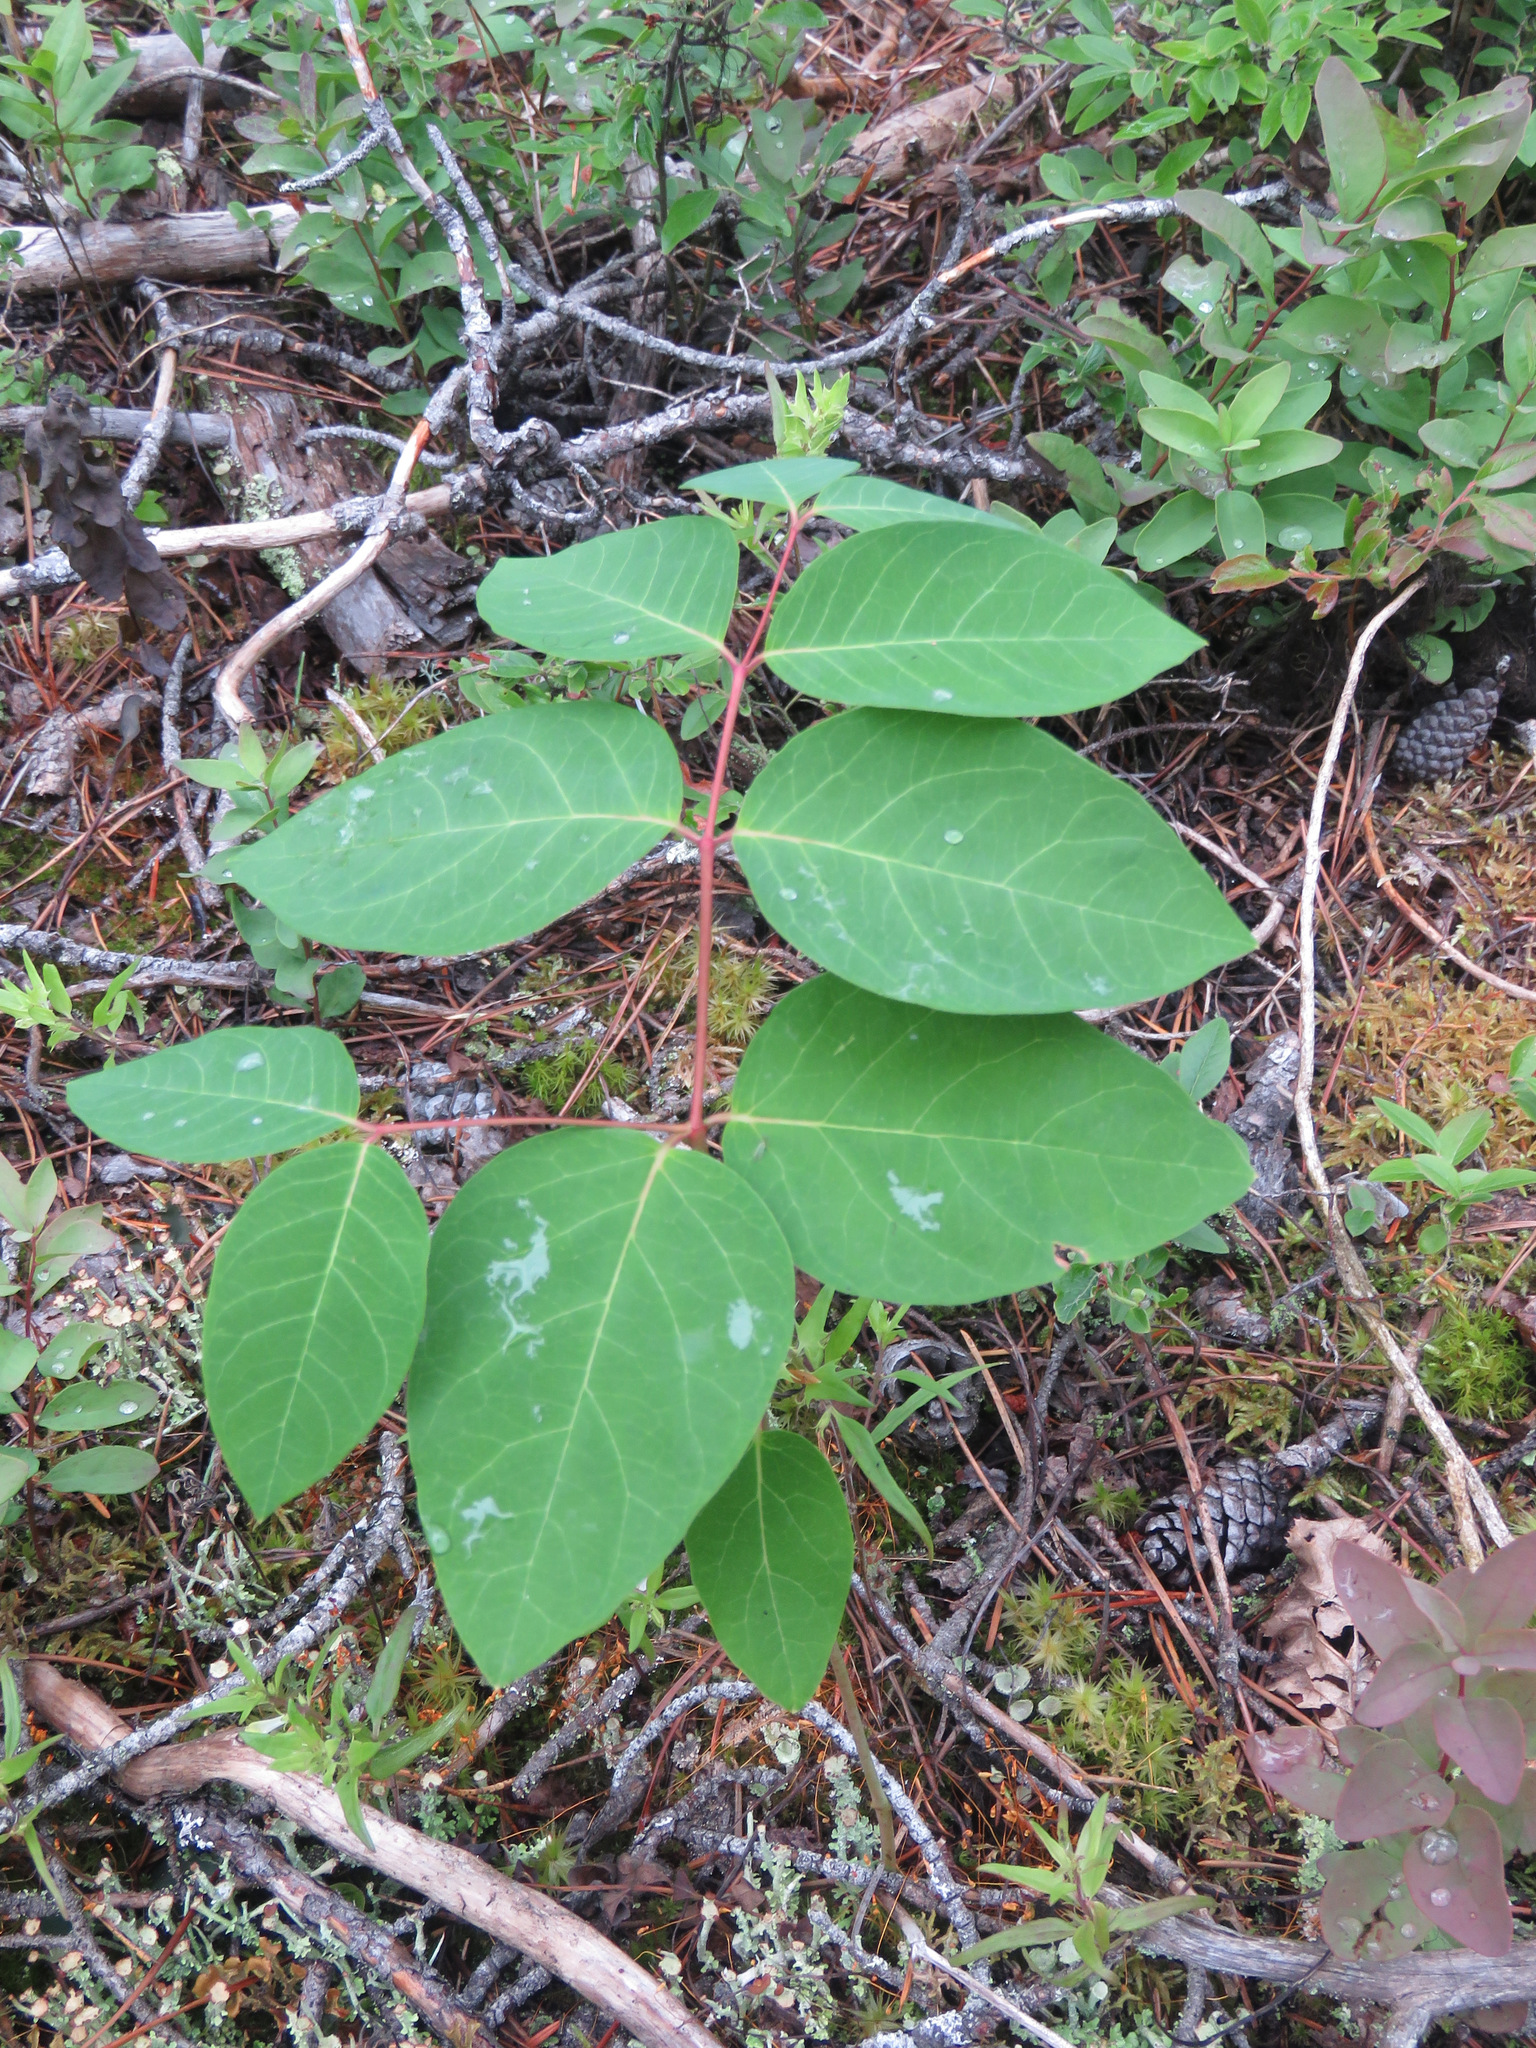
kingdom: Plantae
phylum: Tracheophyta
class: Magnoliopsida
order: Gentianales
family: Apocynaceae
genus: Apocynum
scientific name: Apocynum androsaemifolium
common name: Spreading dogbane
